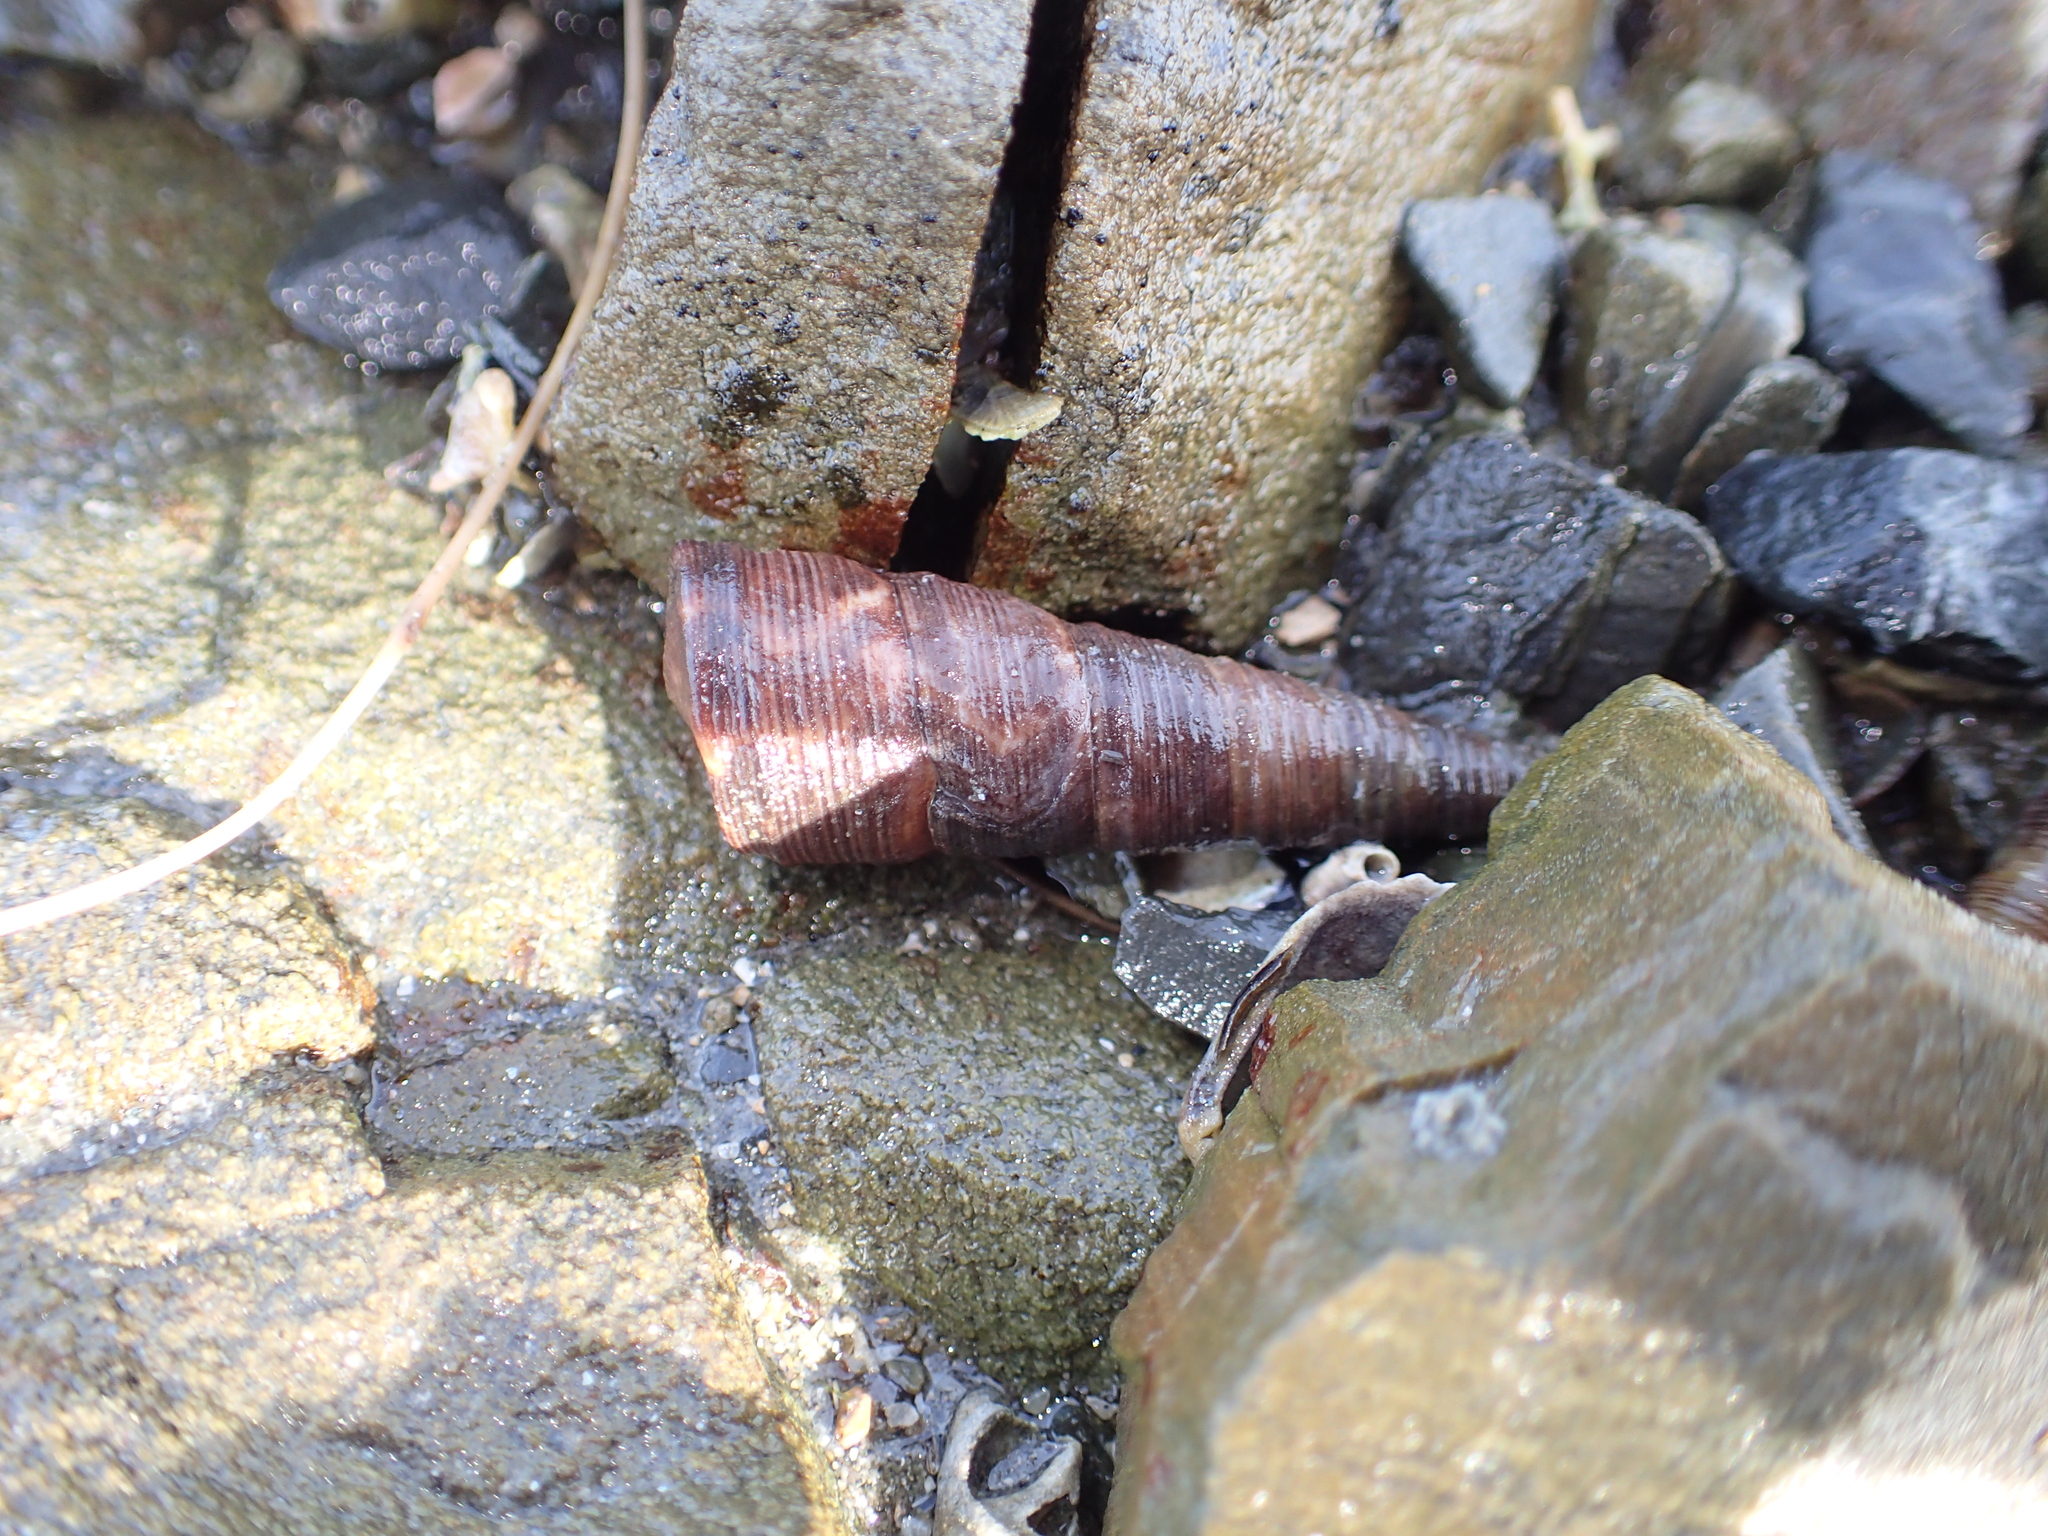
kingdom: Animalia
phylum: Mollusca
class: Gastropoda
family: Turritellidae
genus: Maoricolpus
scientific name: Maoricolpus roseus
